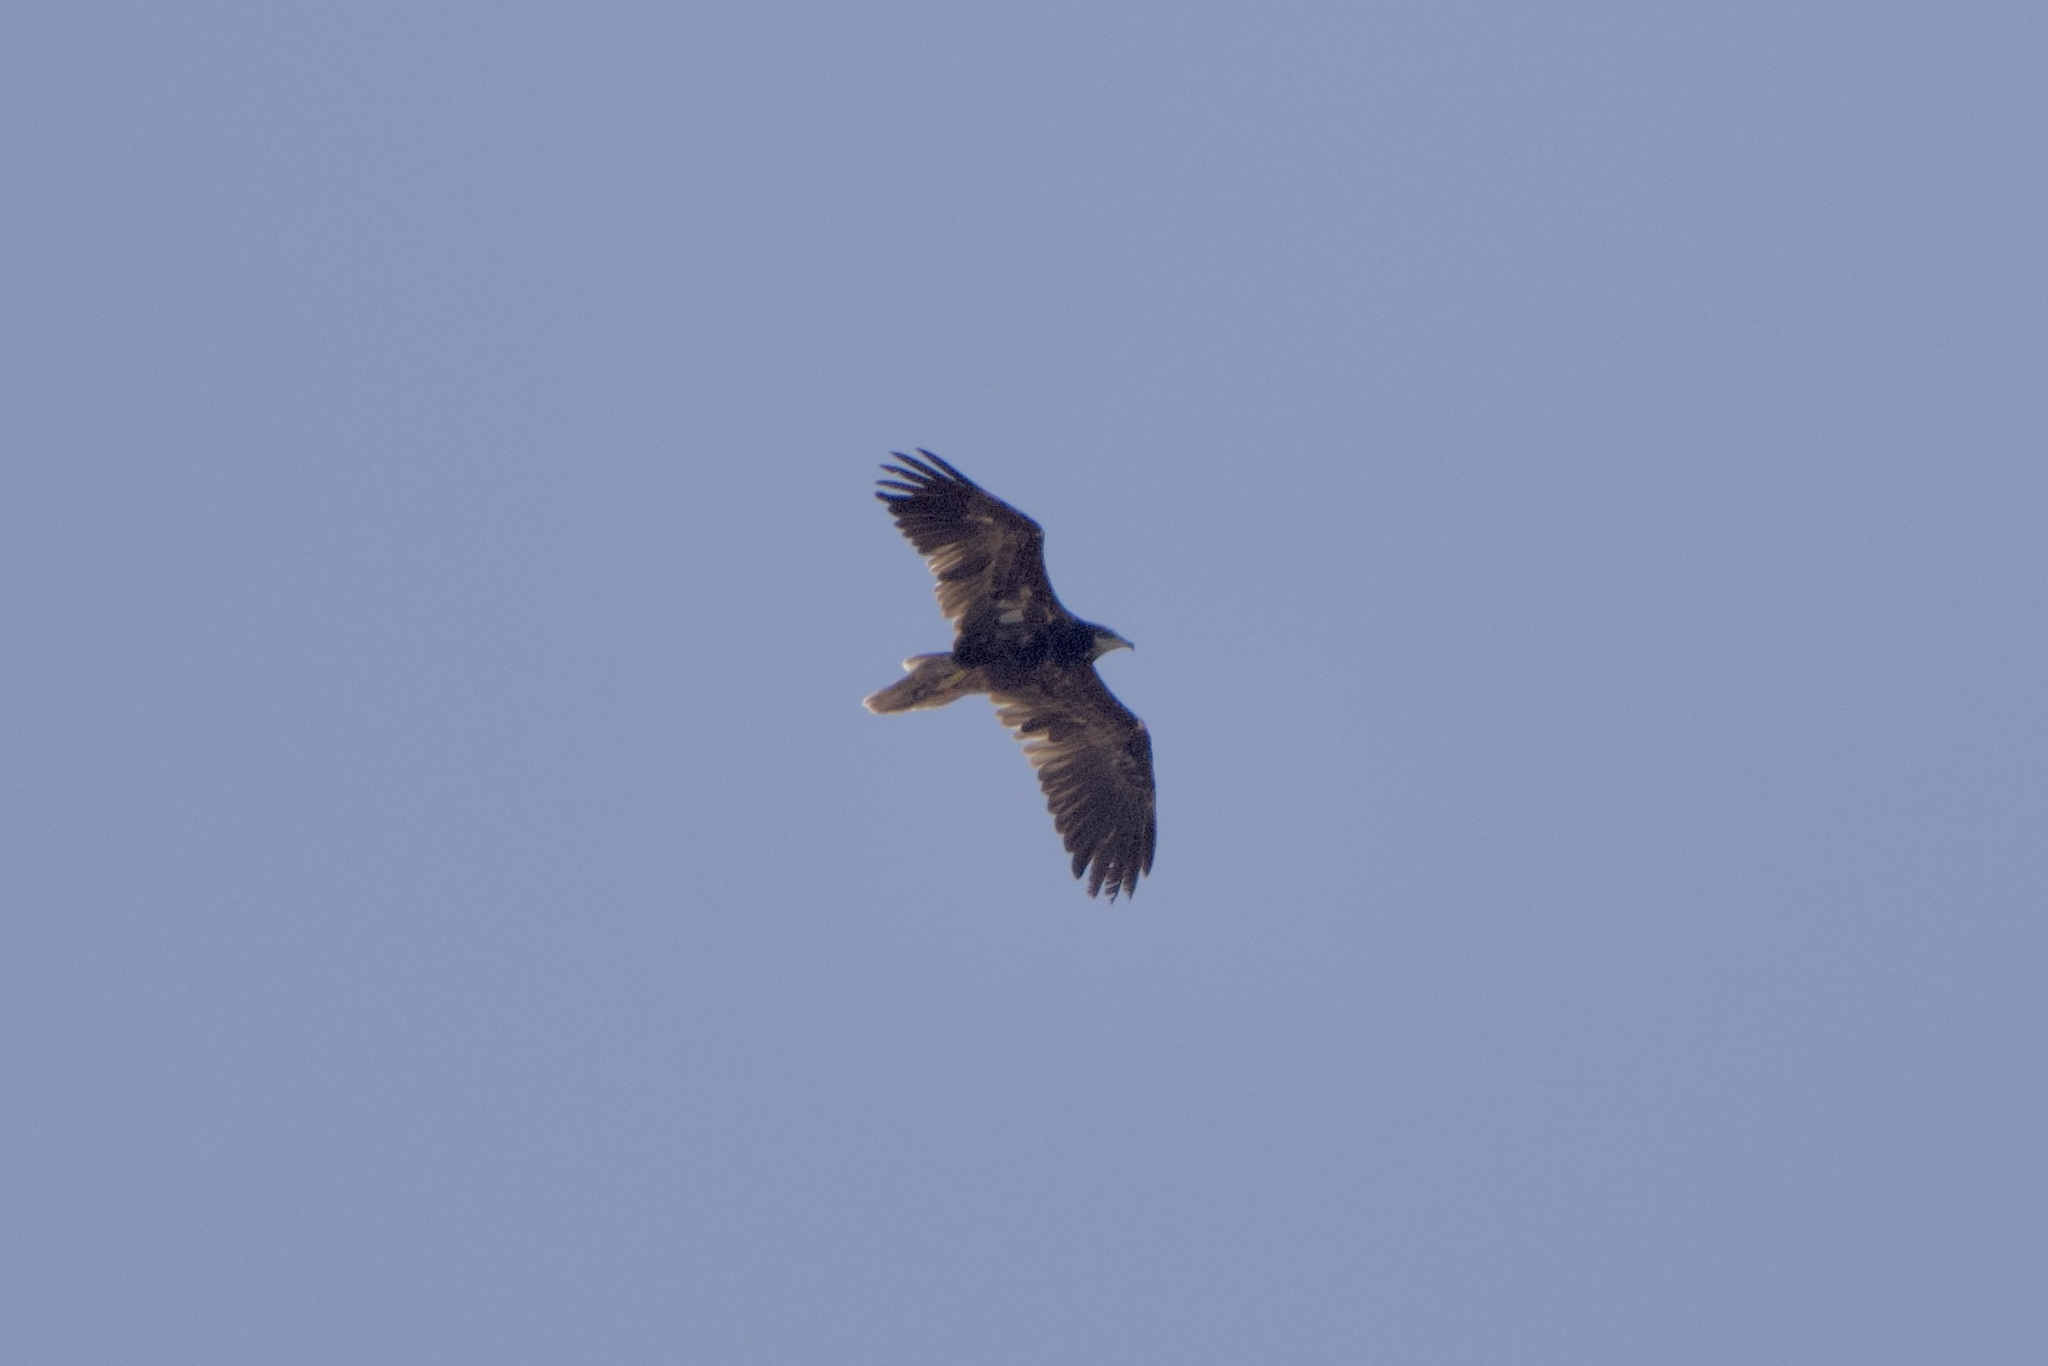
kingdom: Animalia
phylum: Chordata
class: Aves
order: Accipitriformes
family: Accipitridae
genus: Neophron
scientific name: Neophron percnopterus
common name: Egyptian vulture
